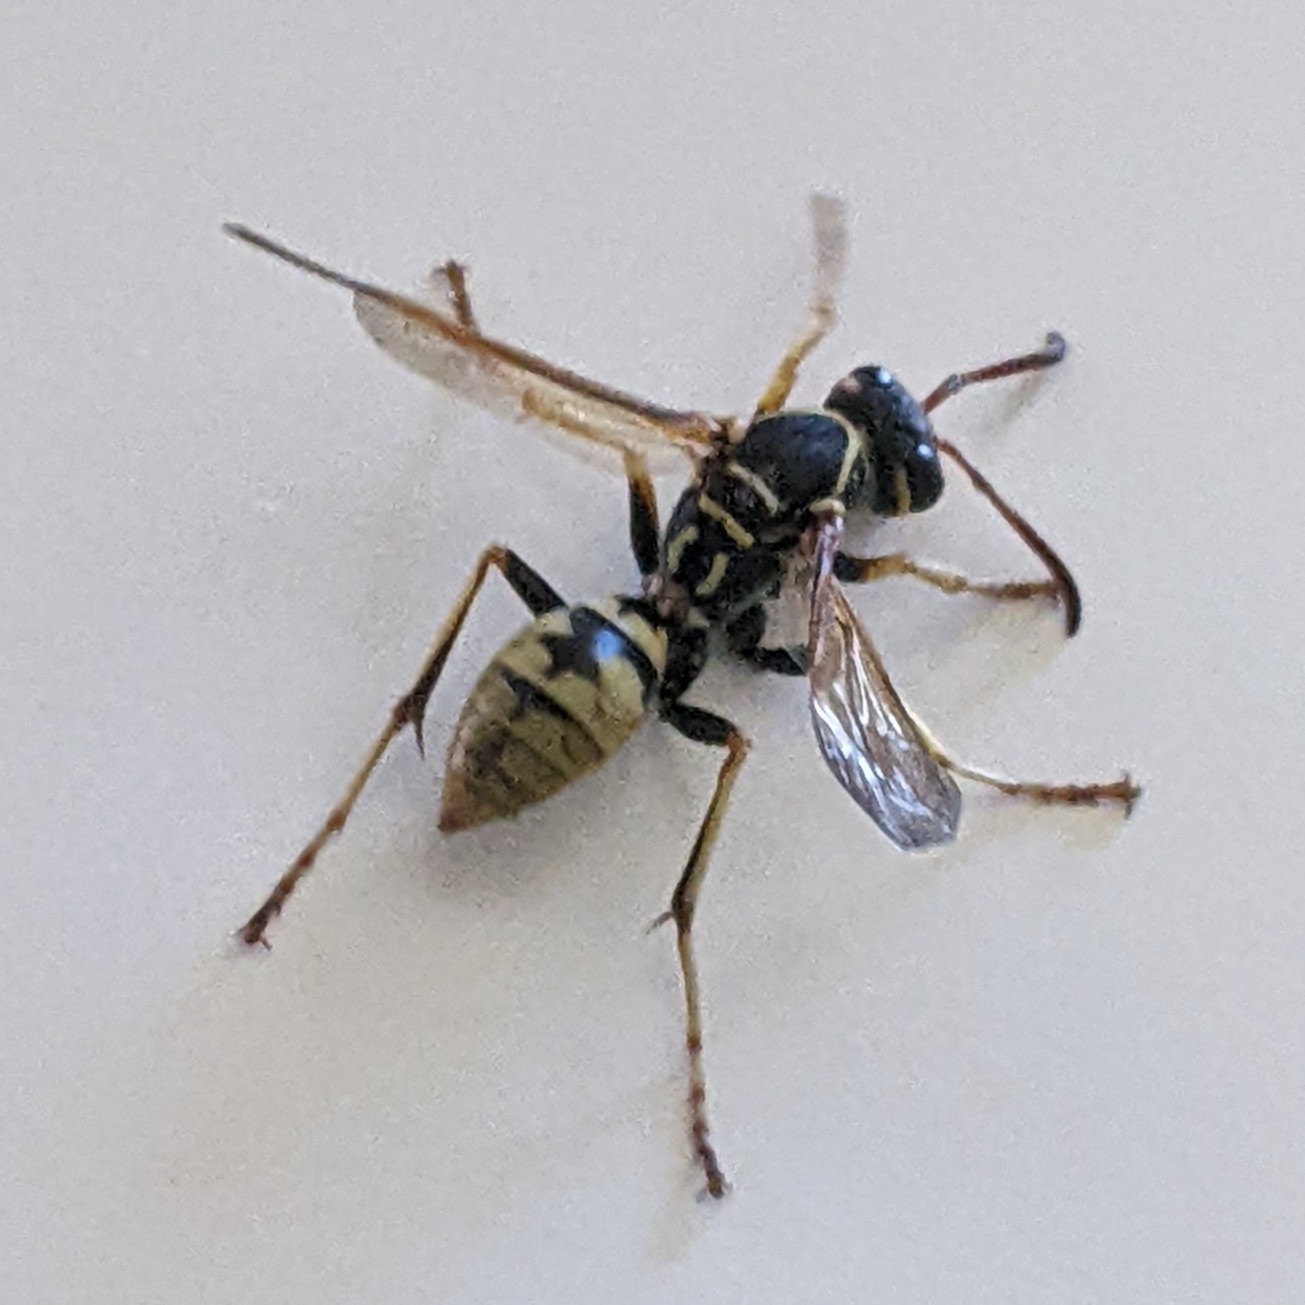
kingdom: Animalia
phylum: Arthropoda
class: Insecta
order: Hymenoptera
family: Eumenidae
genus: Polistes
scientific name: Polistes aurifer
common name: Paper wasp
